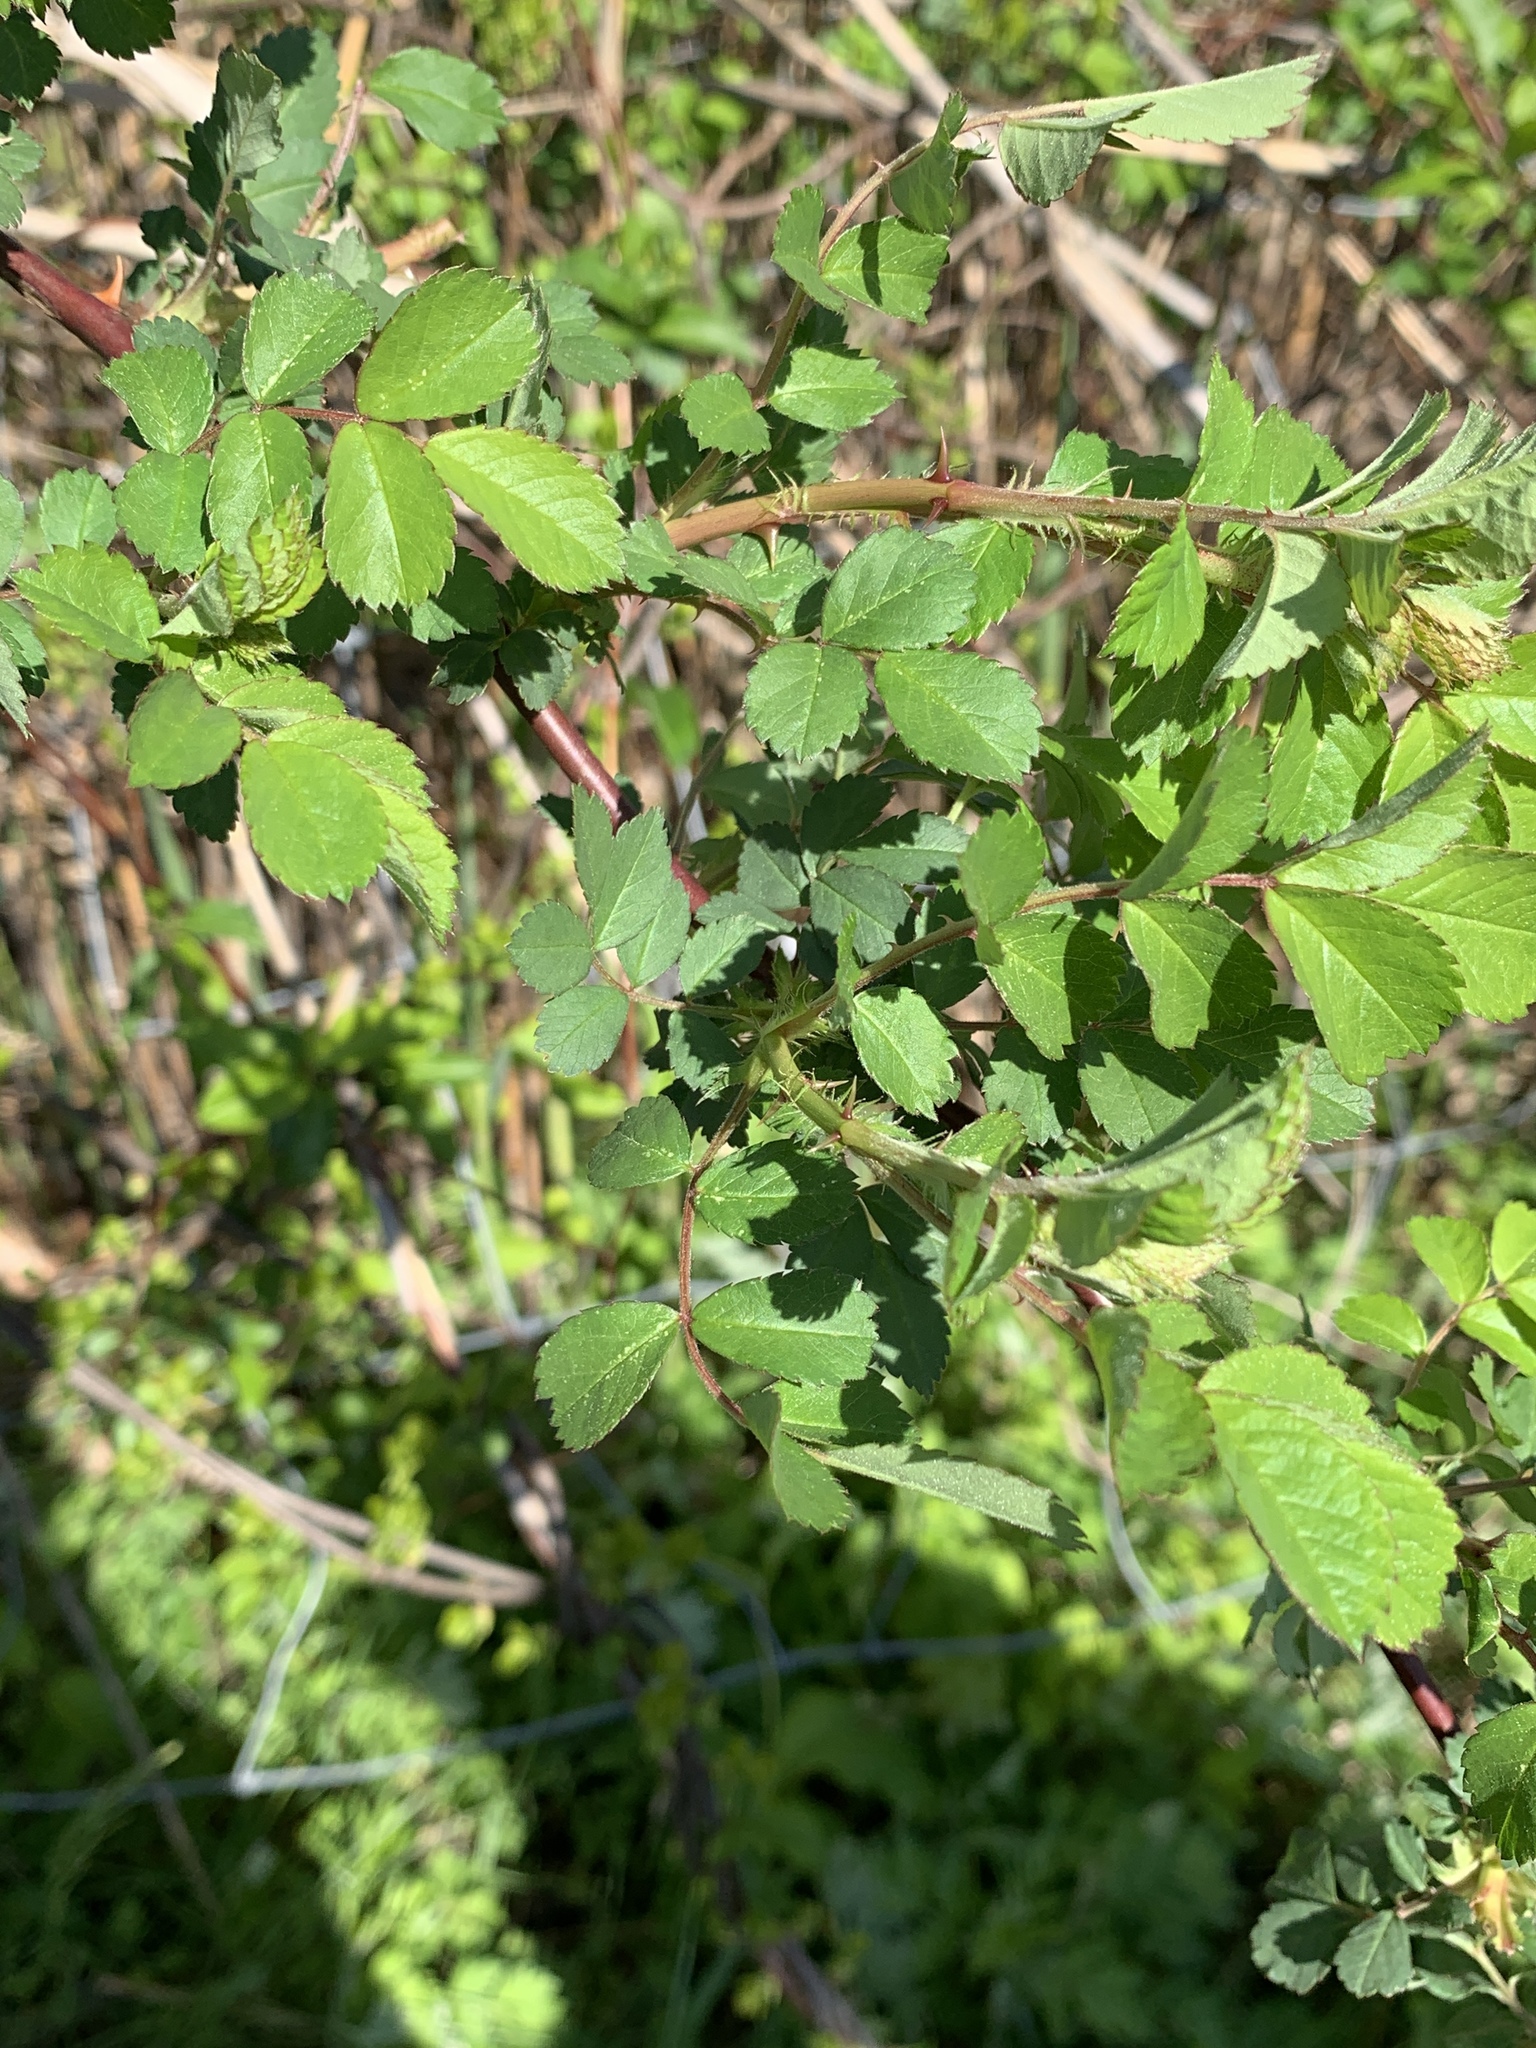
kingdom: Plantae
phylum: Tracheophyta
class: Magnoliopsida
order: Rosales
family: Rosaceae
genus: Rosa
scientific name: Rosa multiflora
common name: Multiflora rose
